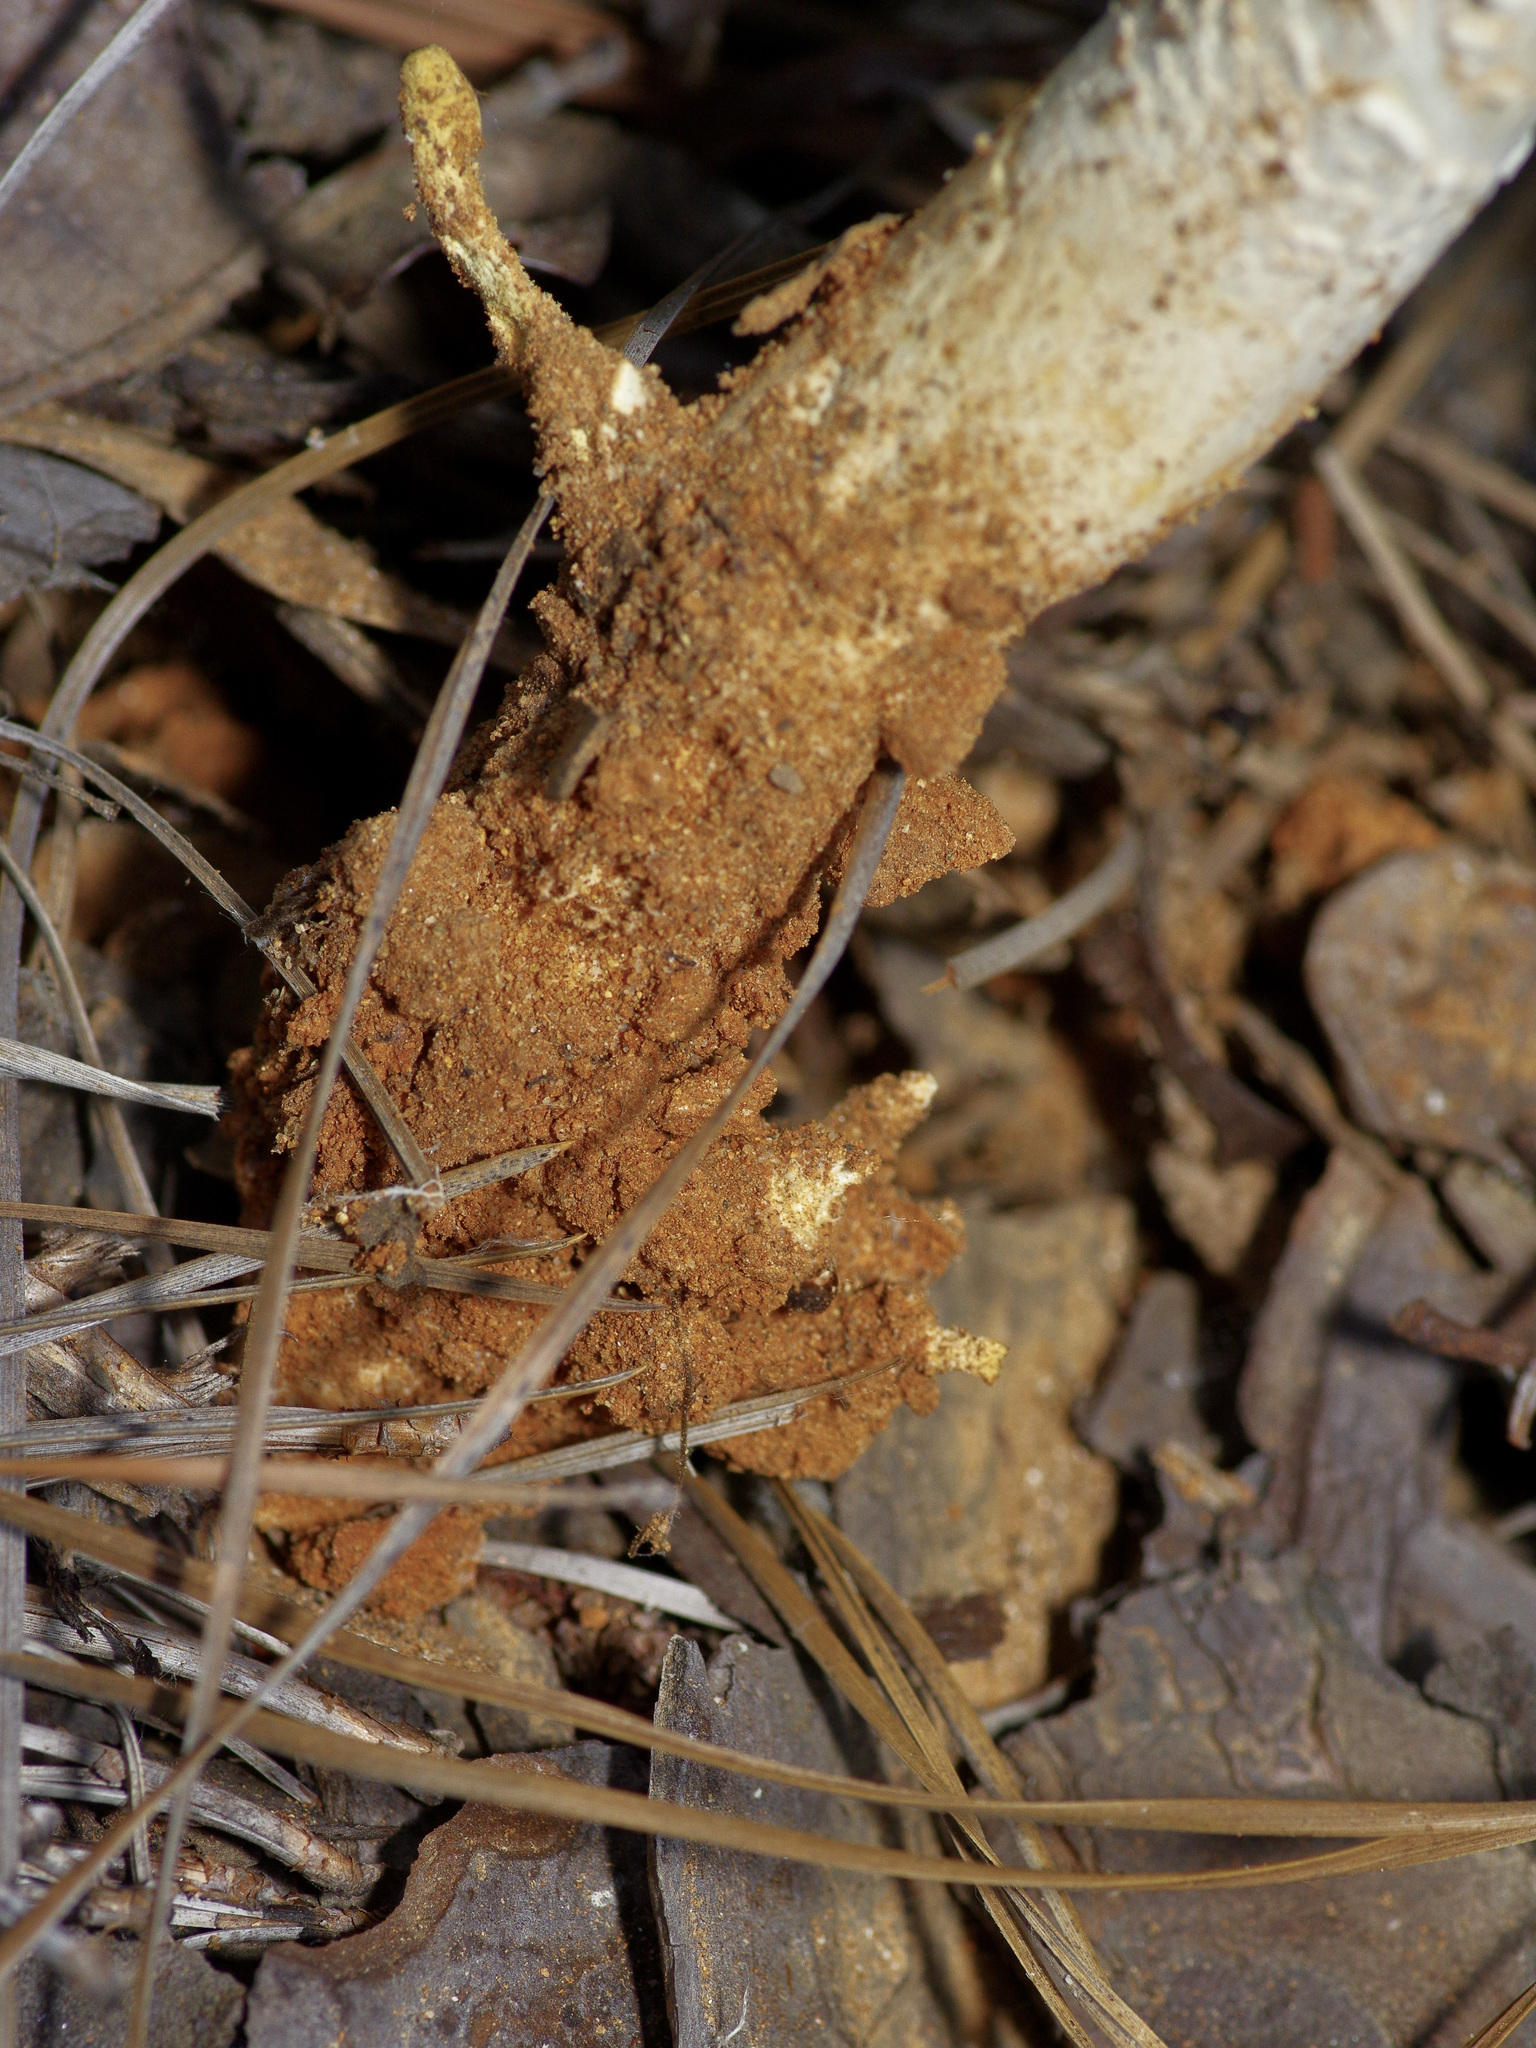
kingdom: Fungi
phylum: Basidiomycota
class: Agaricomycetes
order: Gloeophyllales
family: Gloeophyllaceae
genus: Neolentinus
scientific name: Neolentinus lepideus
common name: Scaly sawgill
